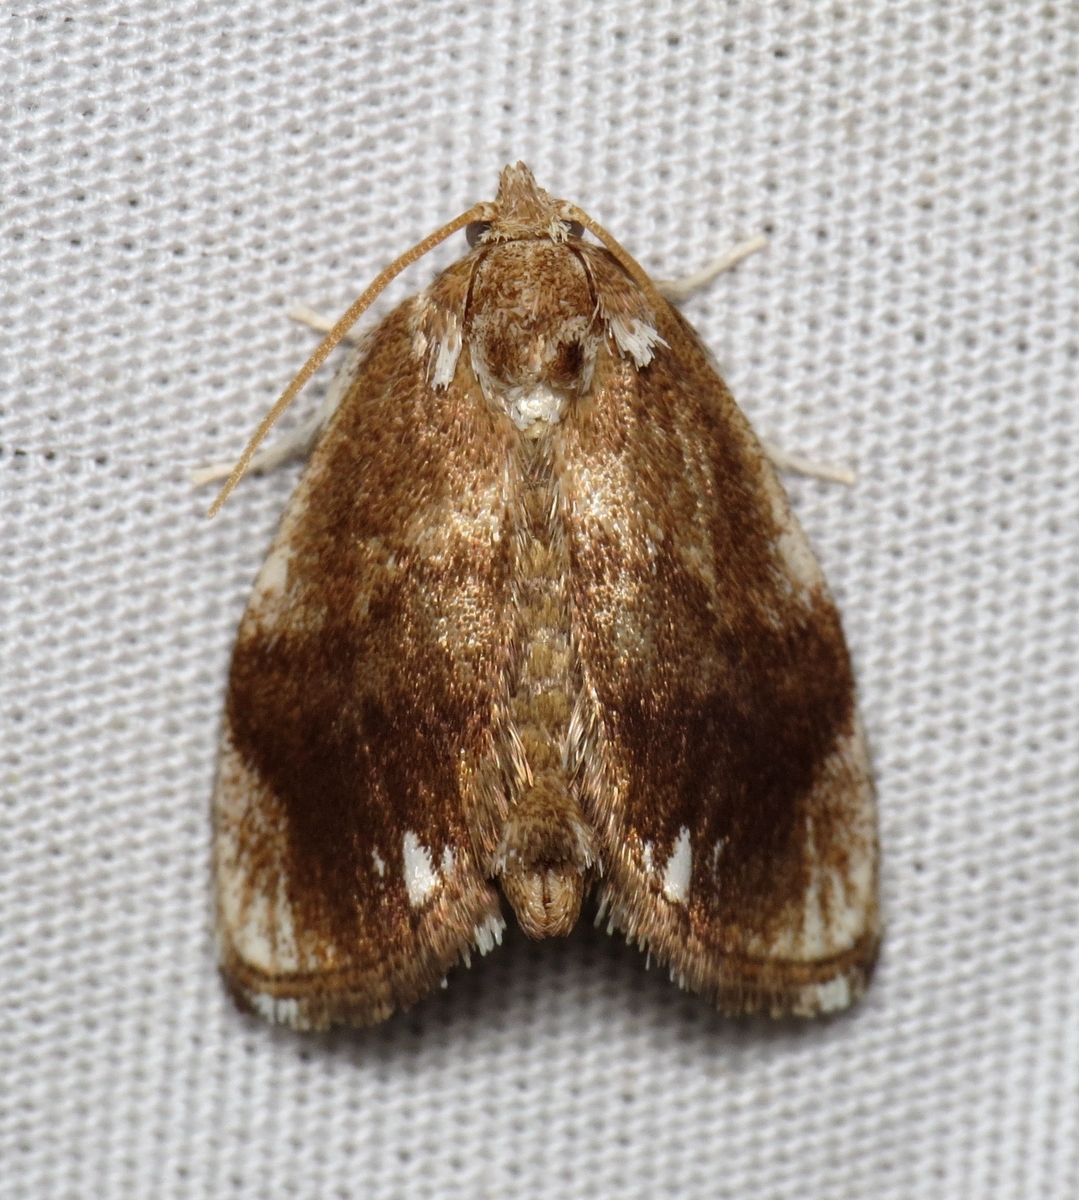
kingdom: Animalia
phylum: Arthropoda
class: Insecta
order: Lepidoptera
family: Limacodidae
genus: Packardia
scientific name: Packardia geminata
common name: Jeweled tailed slug moth
